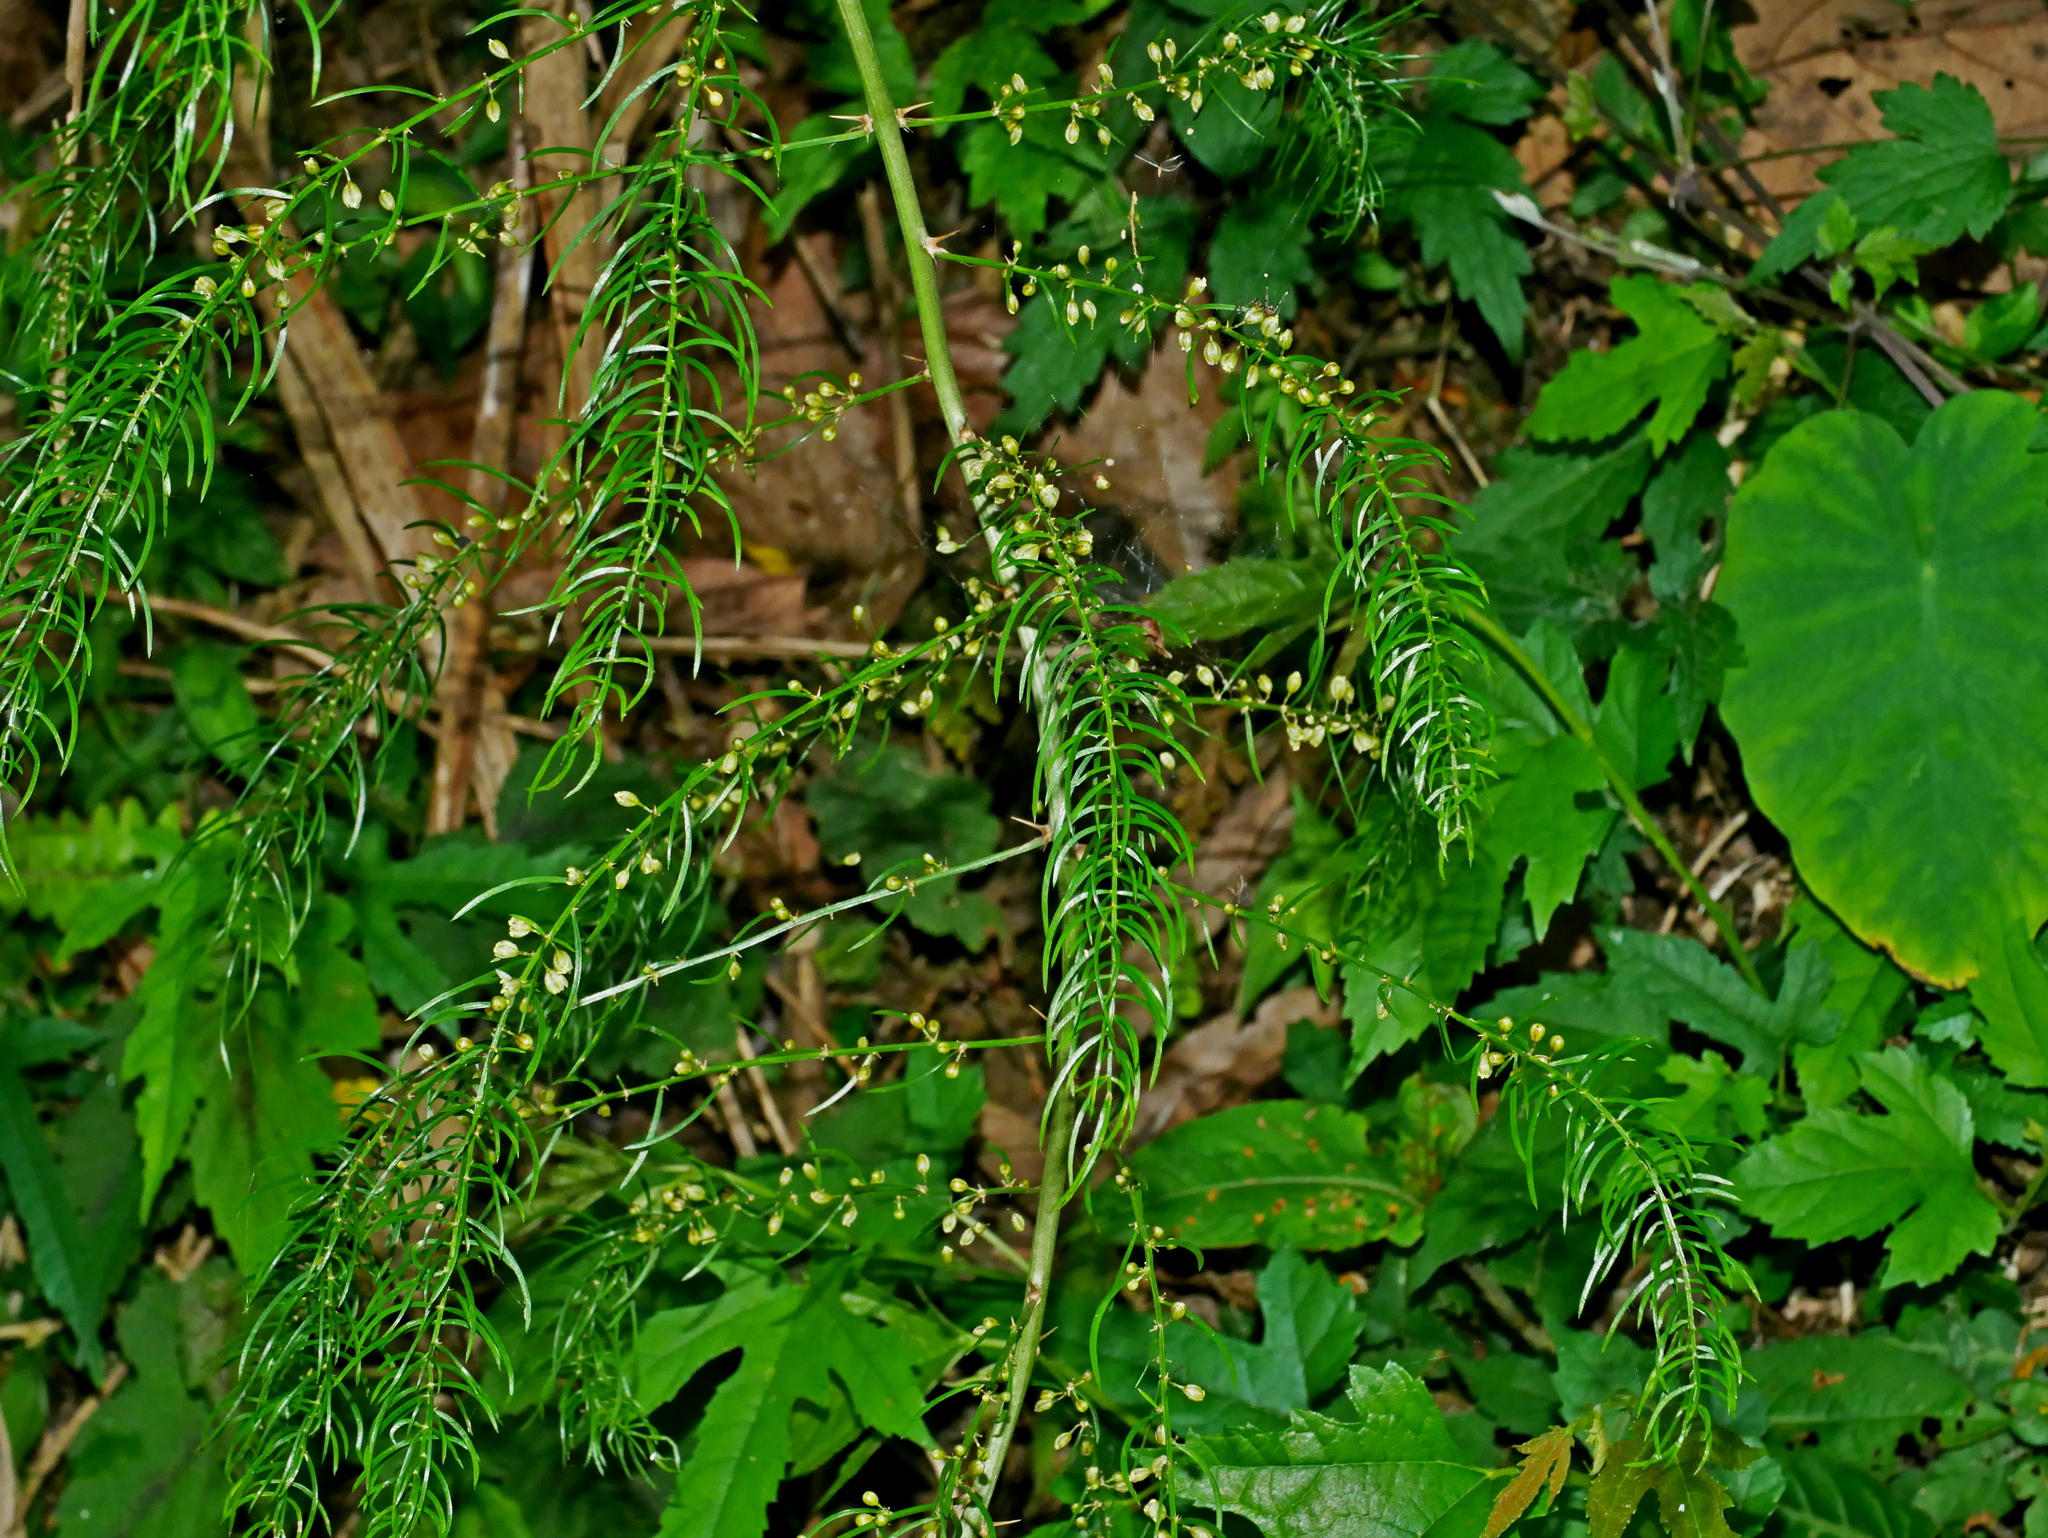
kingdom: Plantae
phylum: Tracheophyta
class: Liliopsida
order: Asparagales
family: Asparagaceae
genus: Asparagus
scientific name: Asparagus cochinchinensis
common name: Chinese asparagus
